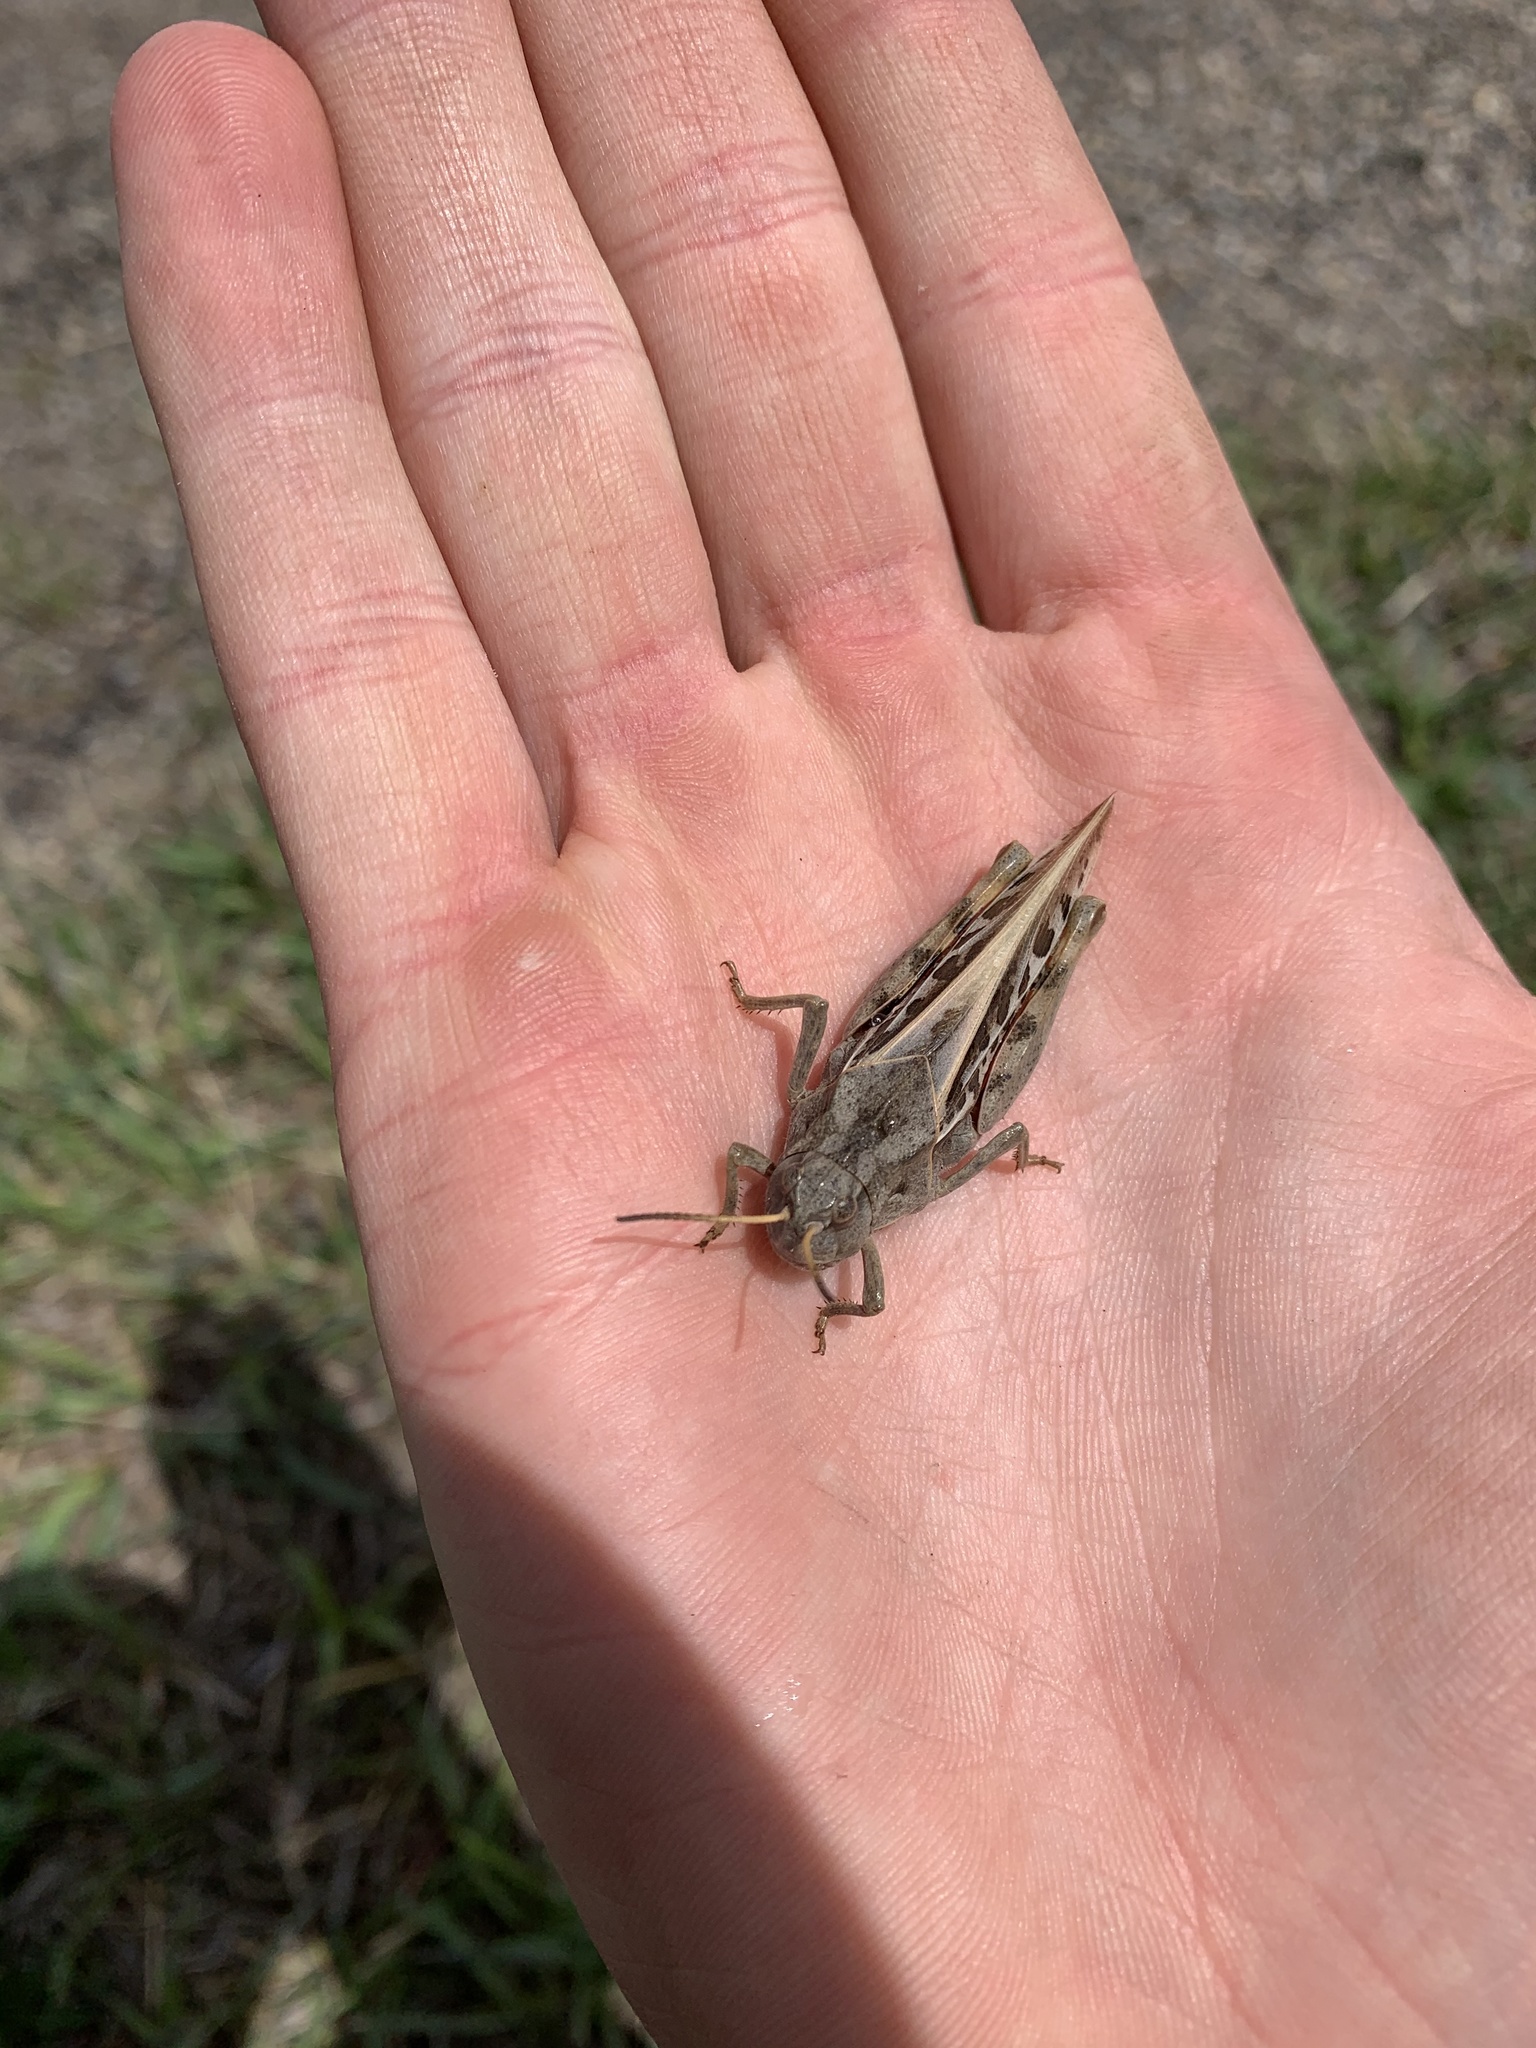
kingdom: Animalia
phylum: Arthropoda
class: Insecta
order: Orthoptera
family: Acrididae
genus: Pardalophora
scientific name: Pardalophora apiculata
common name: Coral-winged locust
